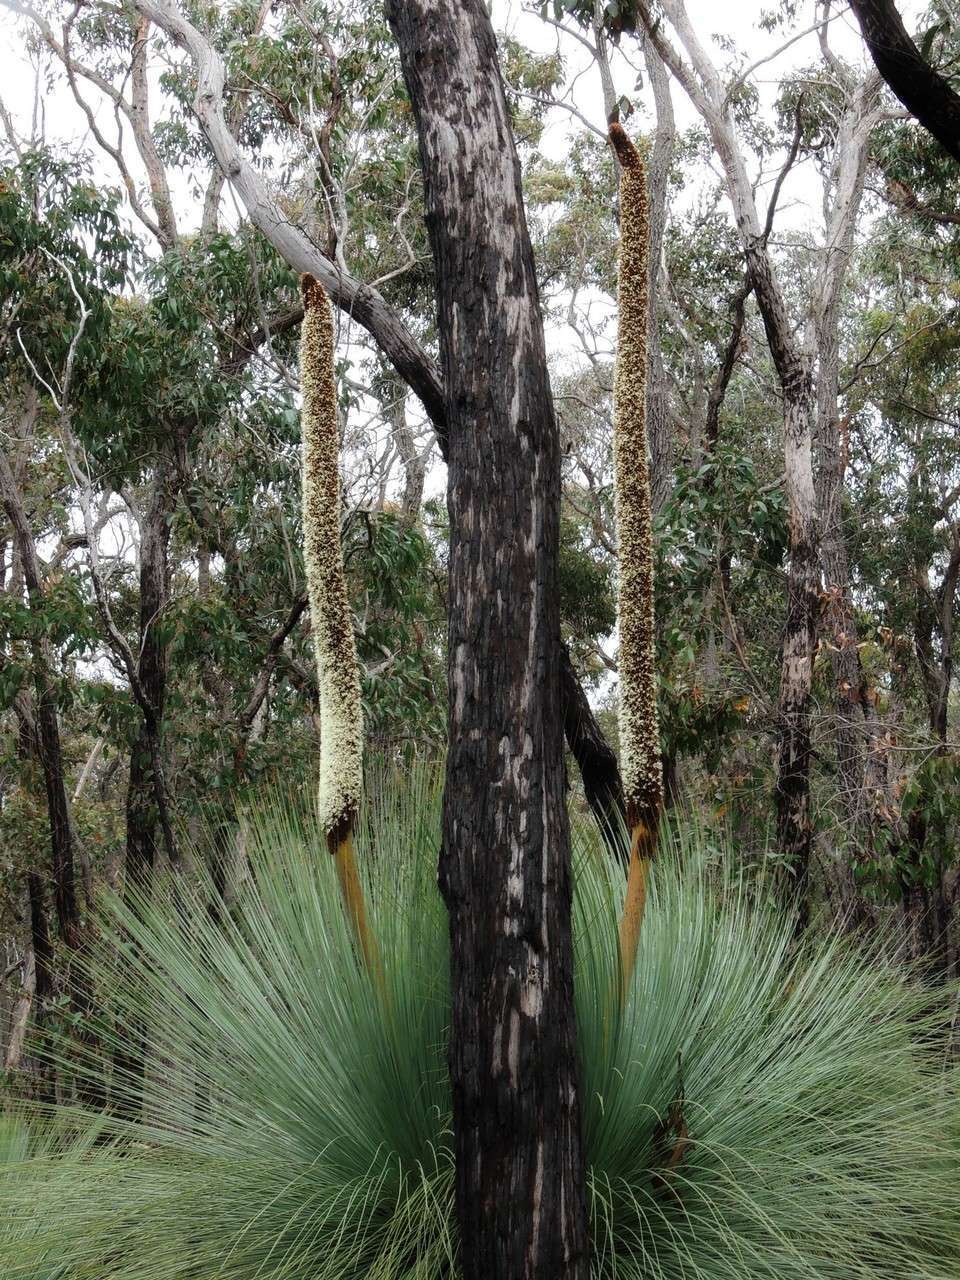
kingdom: Plantae
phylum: Tracheophyta
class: Liliopsida
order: Asparagales
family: Asphodelaceae
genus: Xanthorrhoea
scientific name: Xanthorrhoea australis
